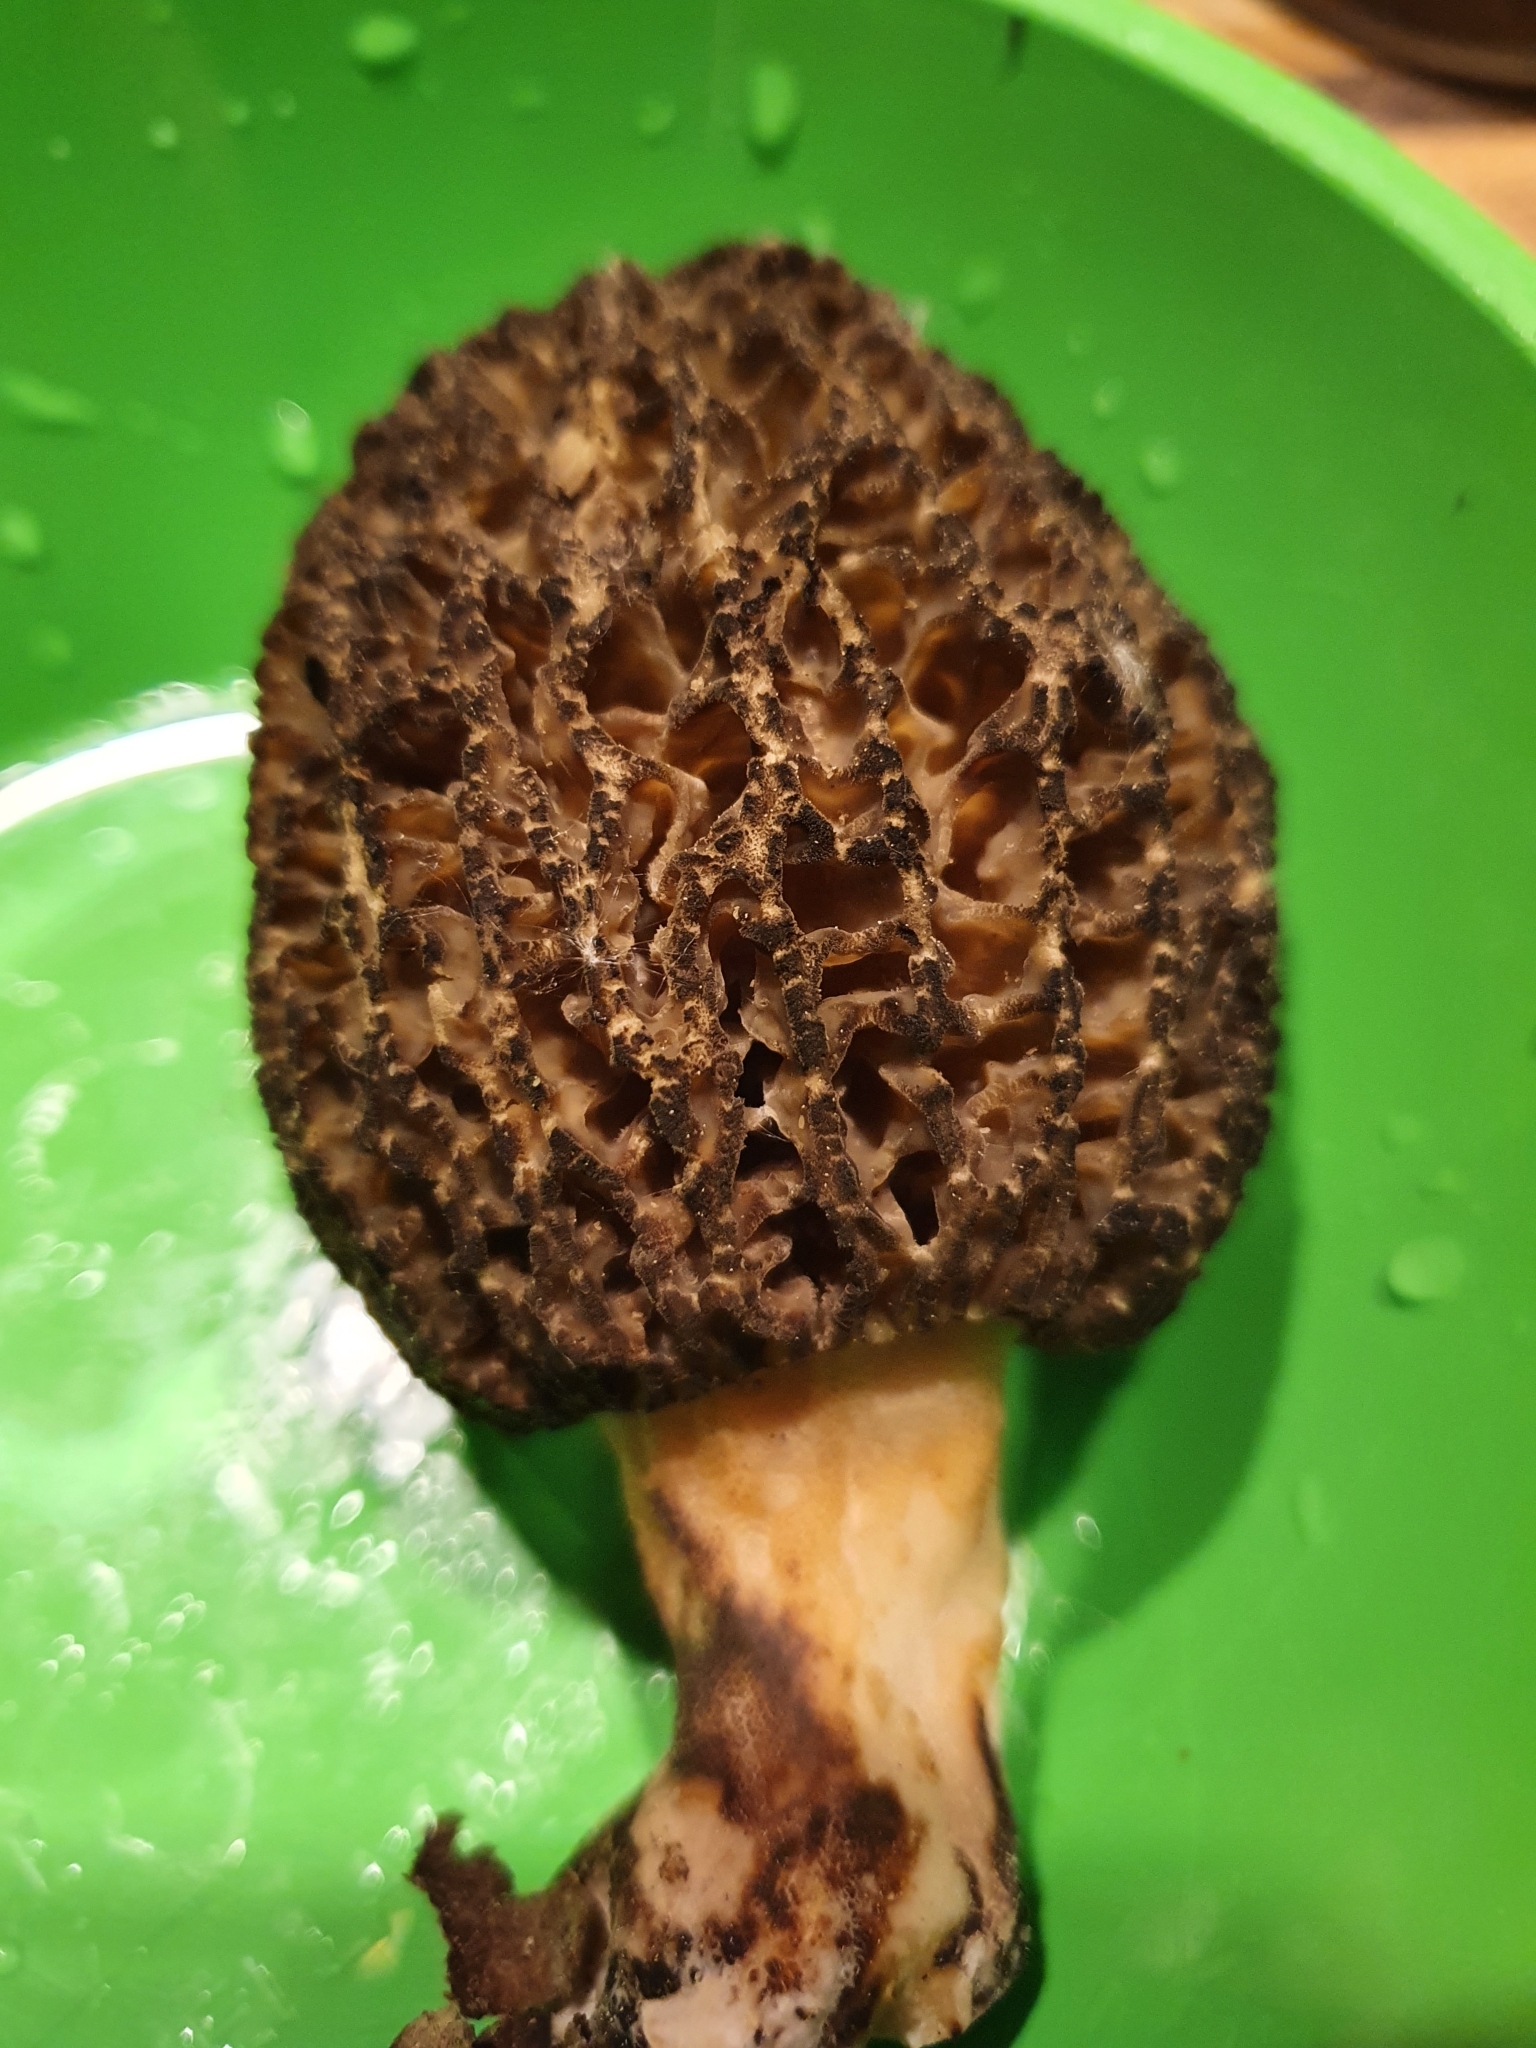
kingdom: Fungi
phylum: Ascomycota
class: Pezizomycetes
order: Pezizales
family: Morchellaceae
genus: Morchella
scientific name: Morchella importuna
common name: Landscaping black morel
